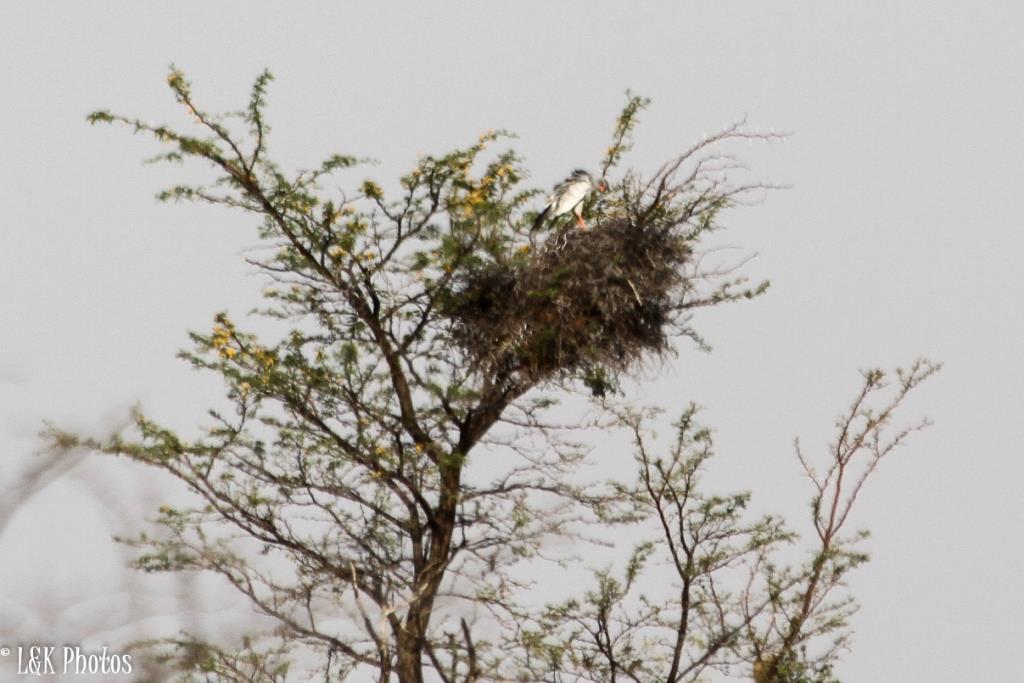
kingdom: Animalia
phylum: Chordata
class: Aves
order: Accipitriformes
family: Accipitridae
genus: Melierax
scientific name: Melierax canorus
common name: Pale chanting-goshawk
